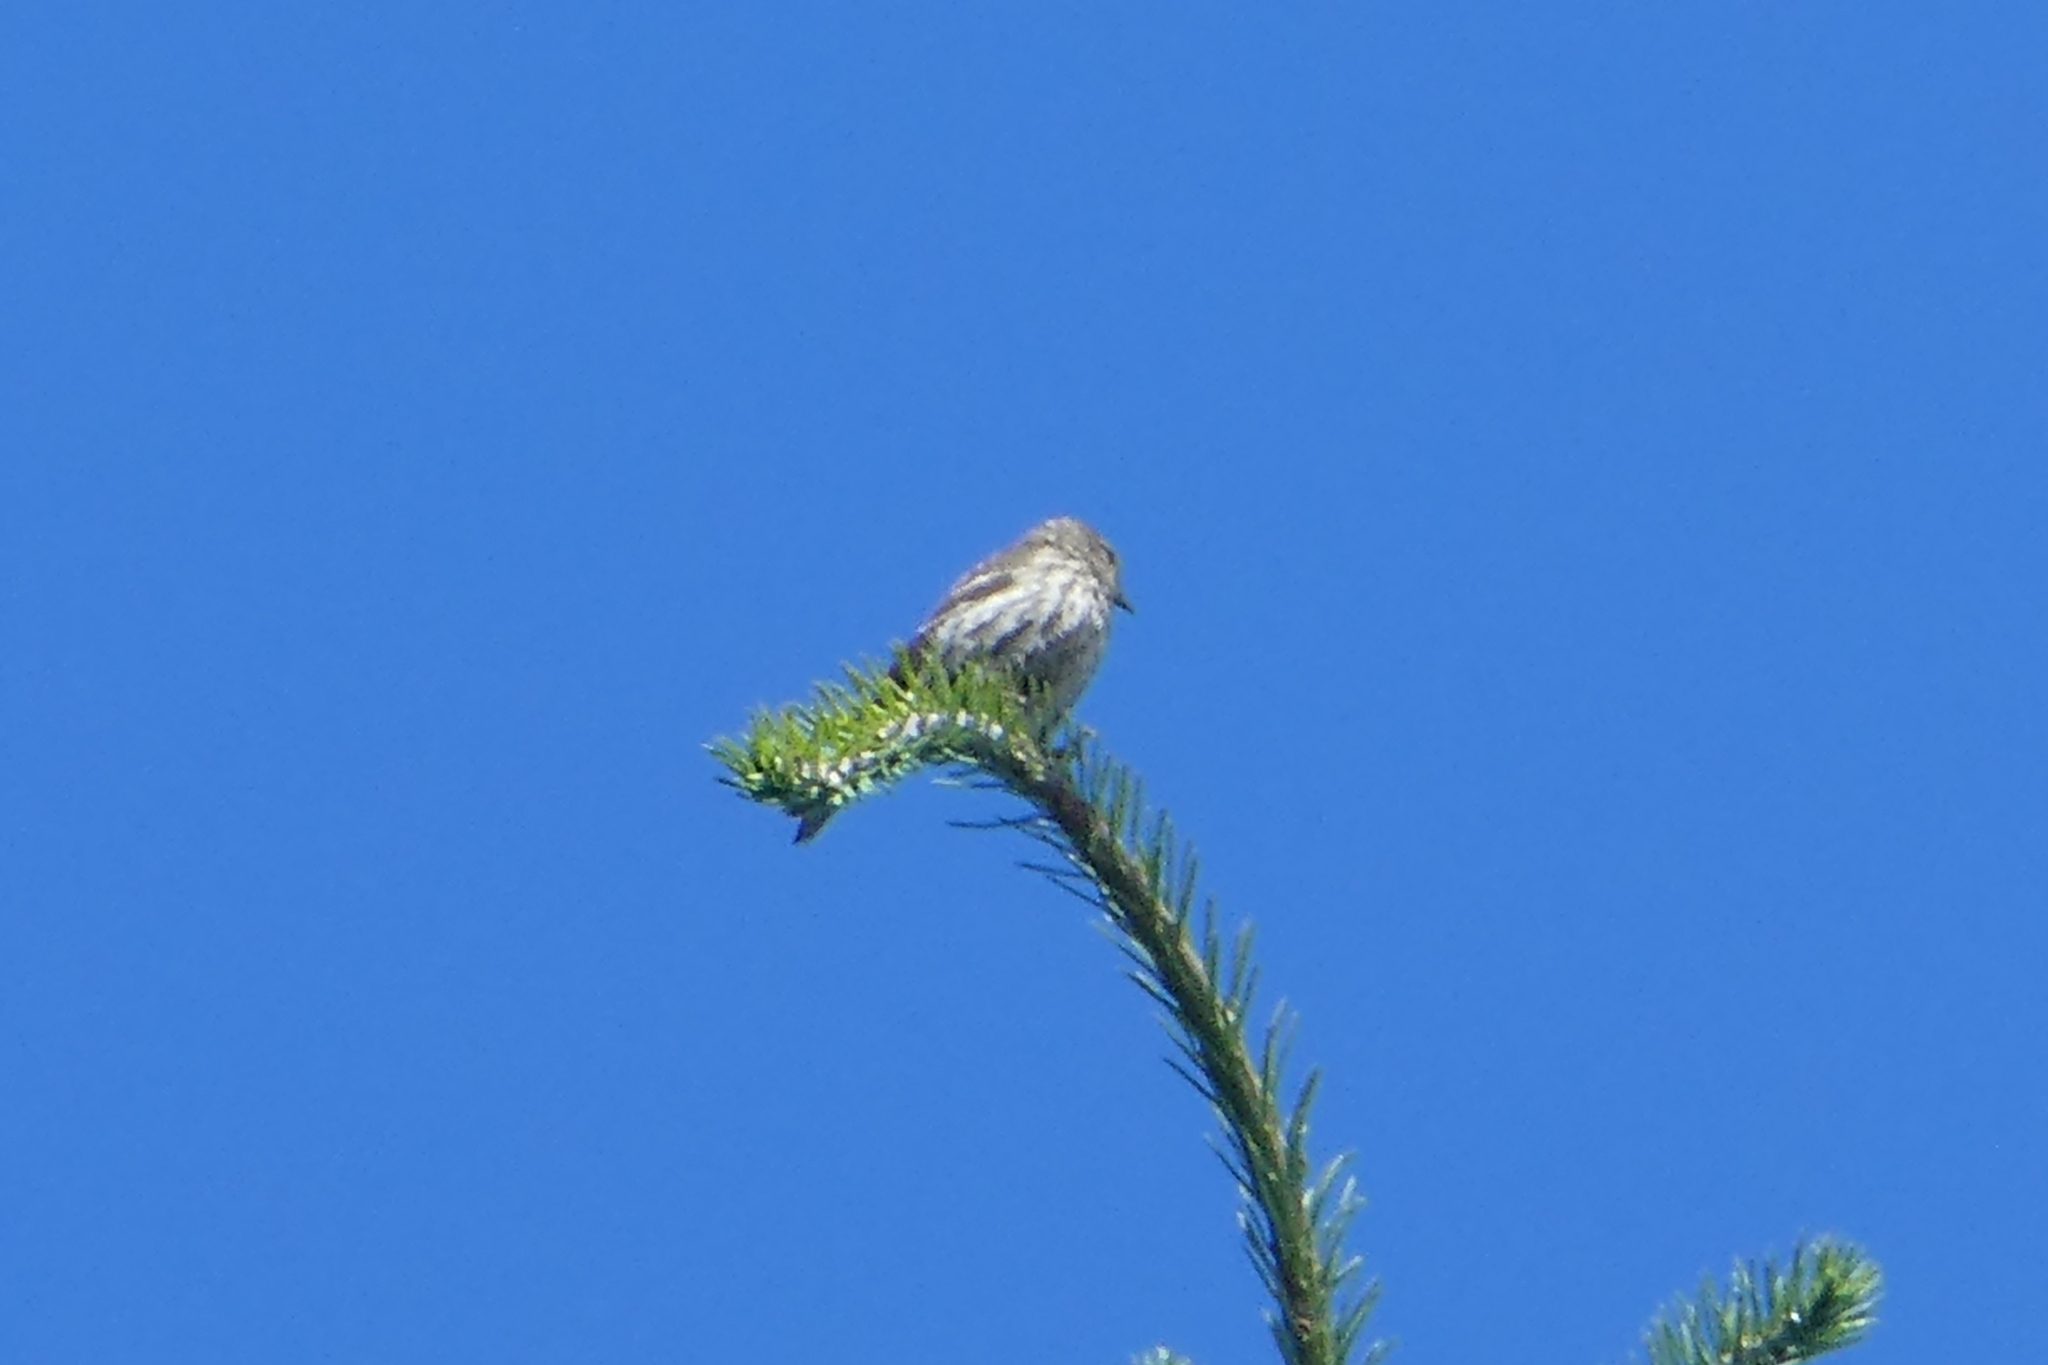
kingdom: Animalia
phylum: Chordata
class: Aves
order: Passeriformes
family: Fringillidae
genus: Spinus
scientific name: Spinus pinus
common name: Pine siskin
